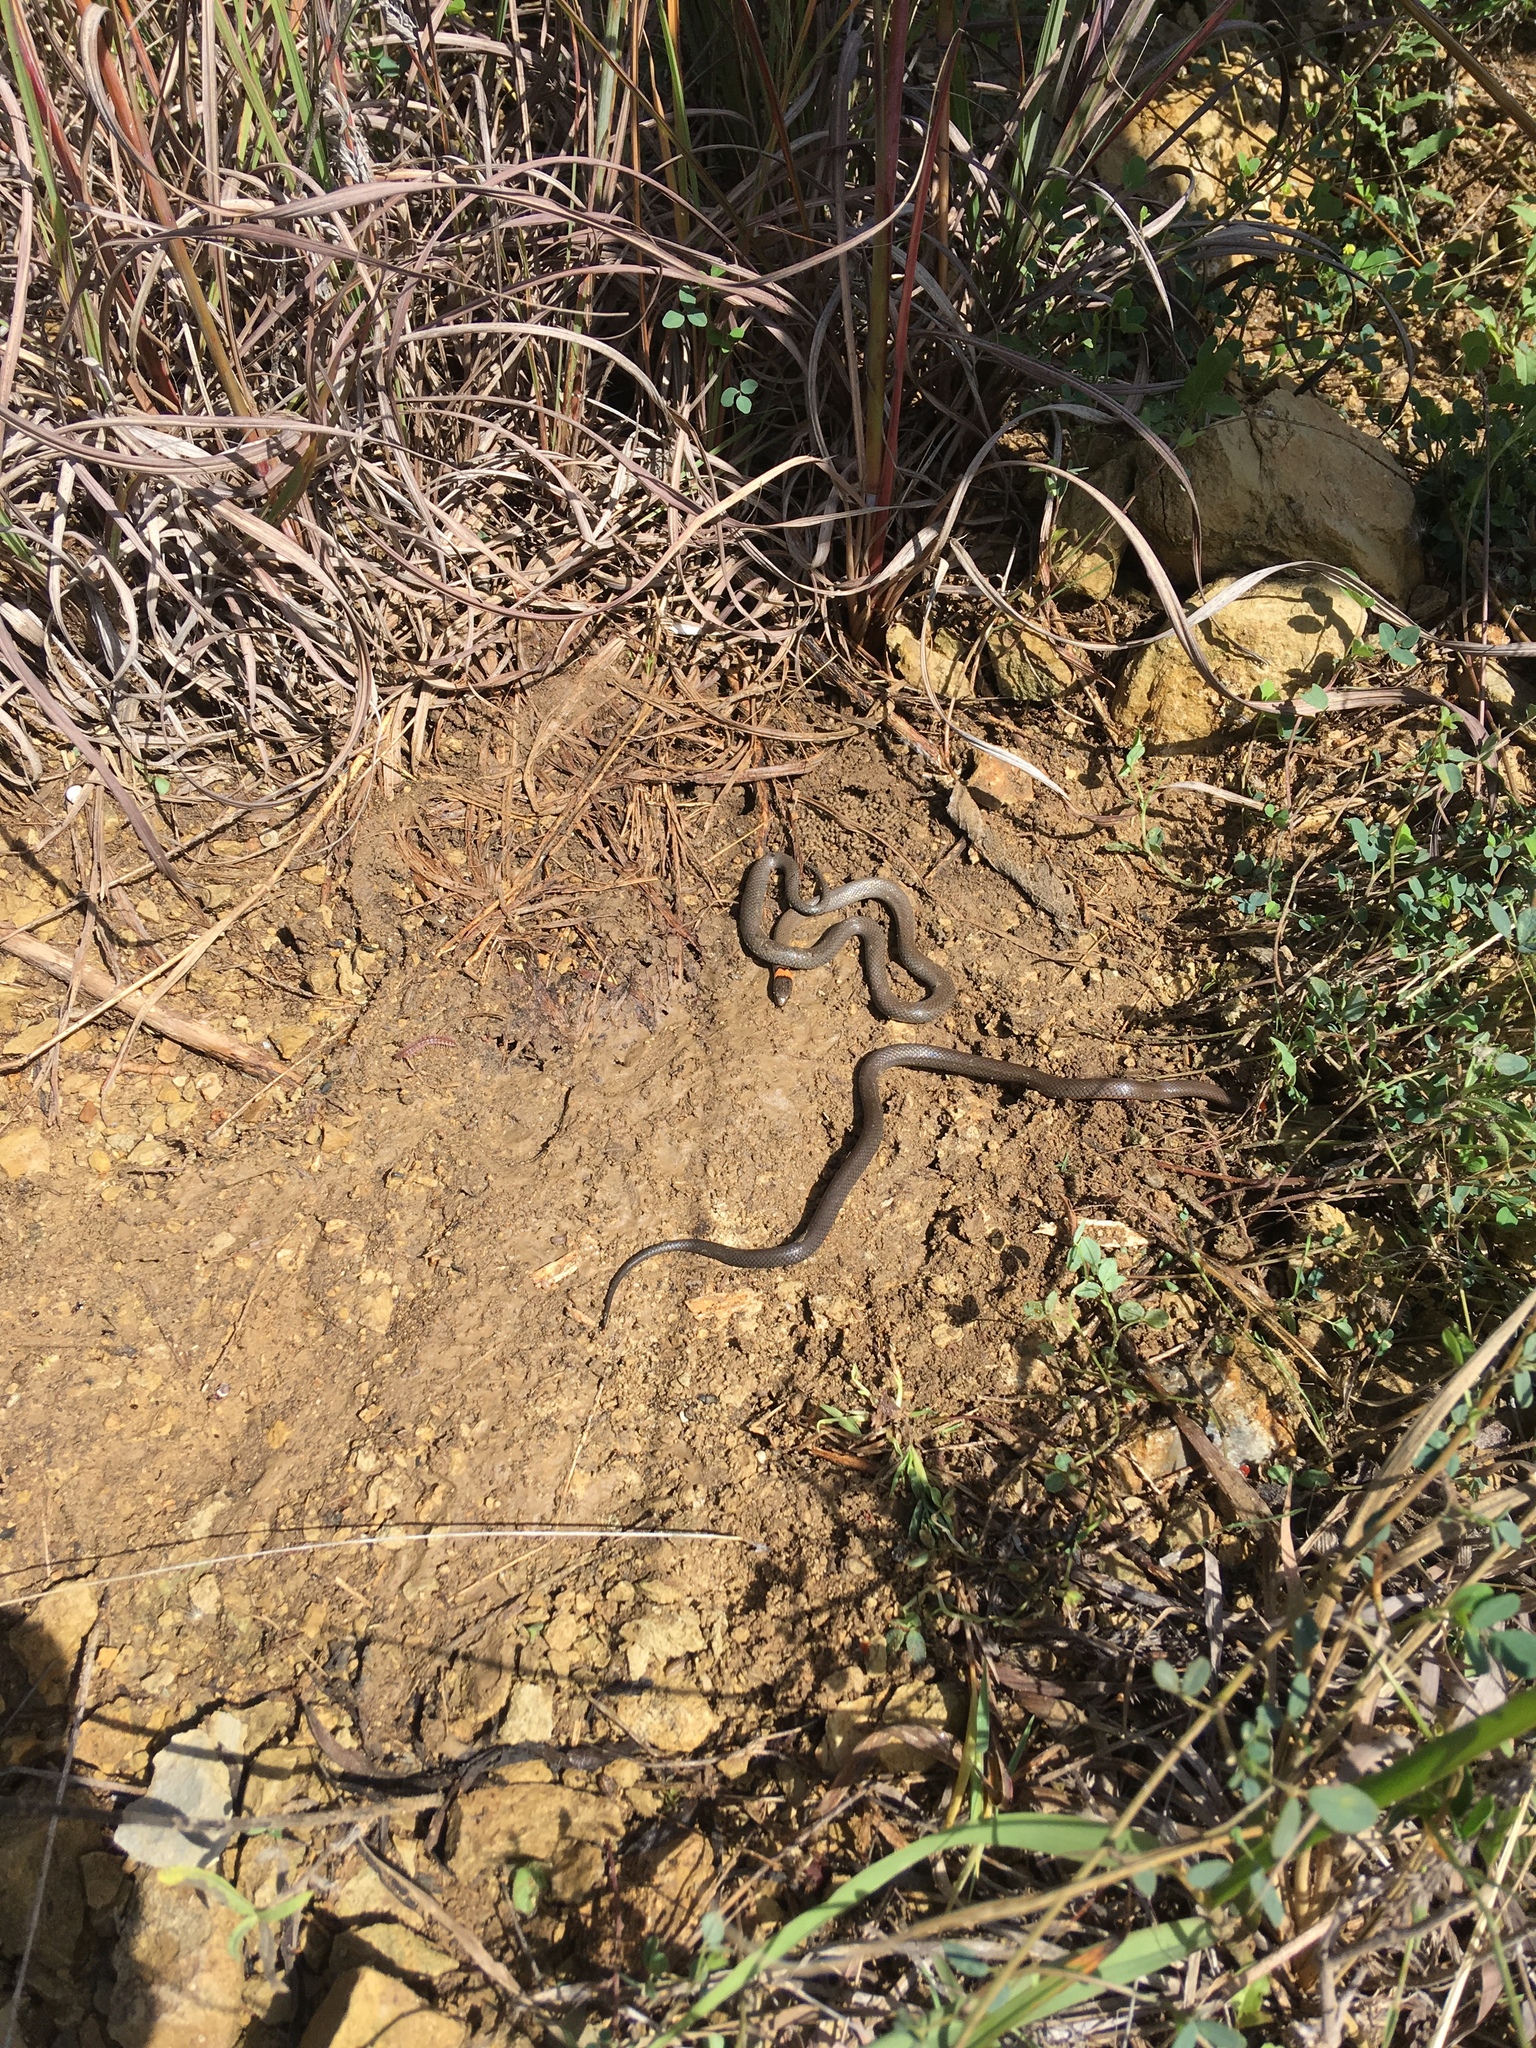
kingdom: Animalia
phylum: Chordata
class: Squamata
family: Colubridae
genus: Diadophis
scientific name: Diadophis punctatus
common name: Ringneck snake
